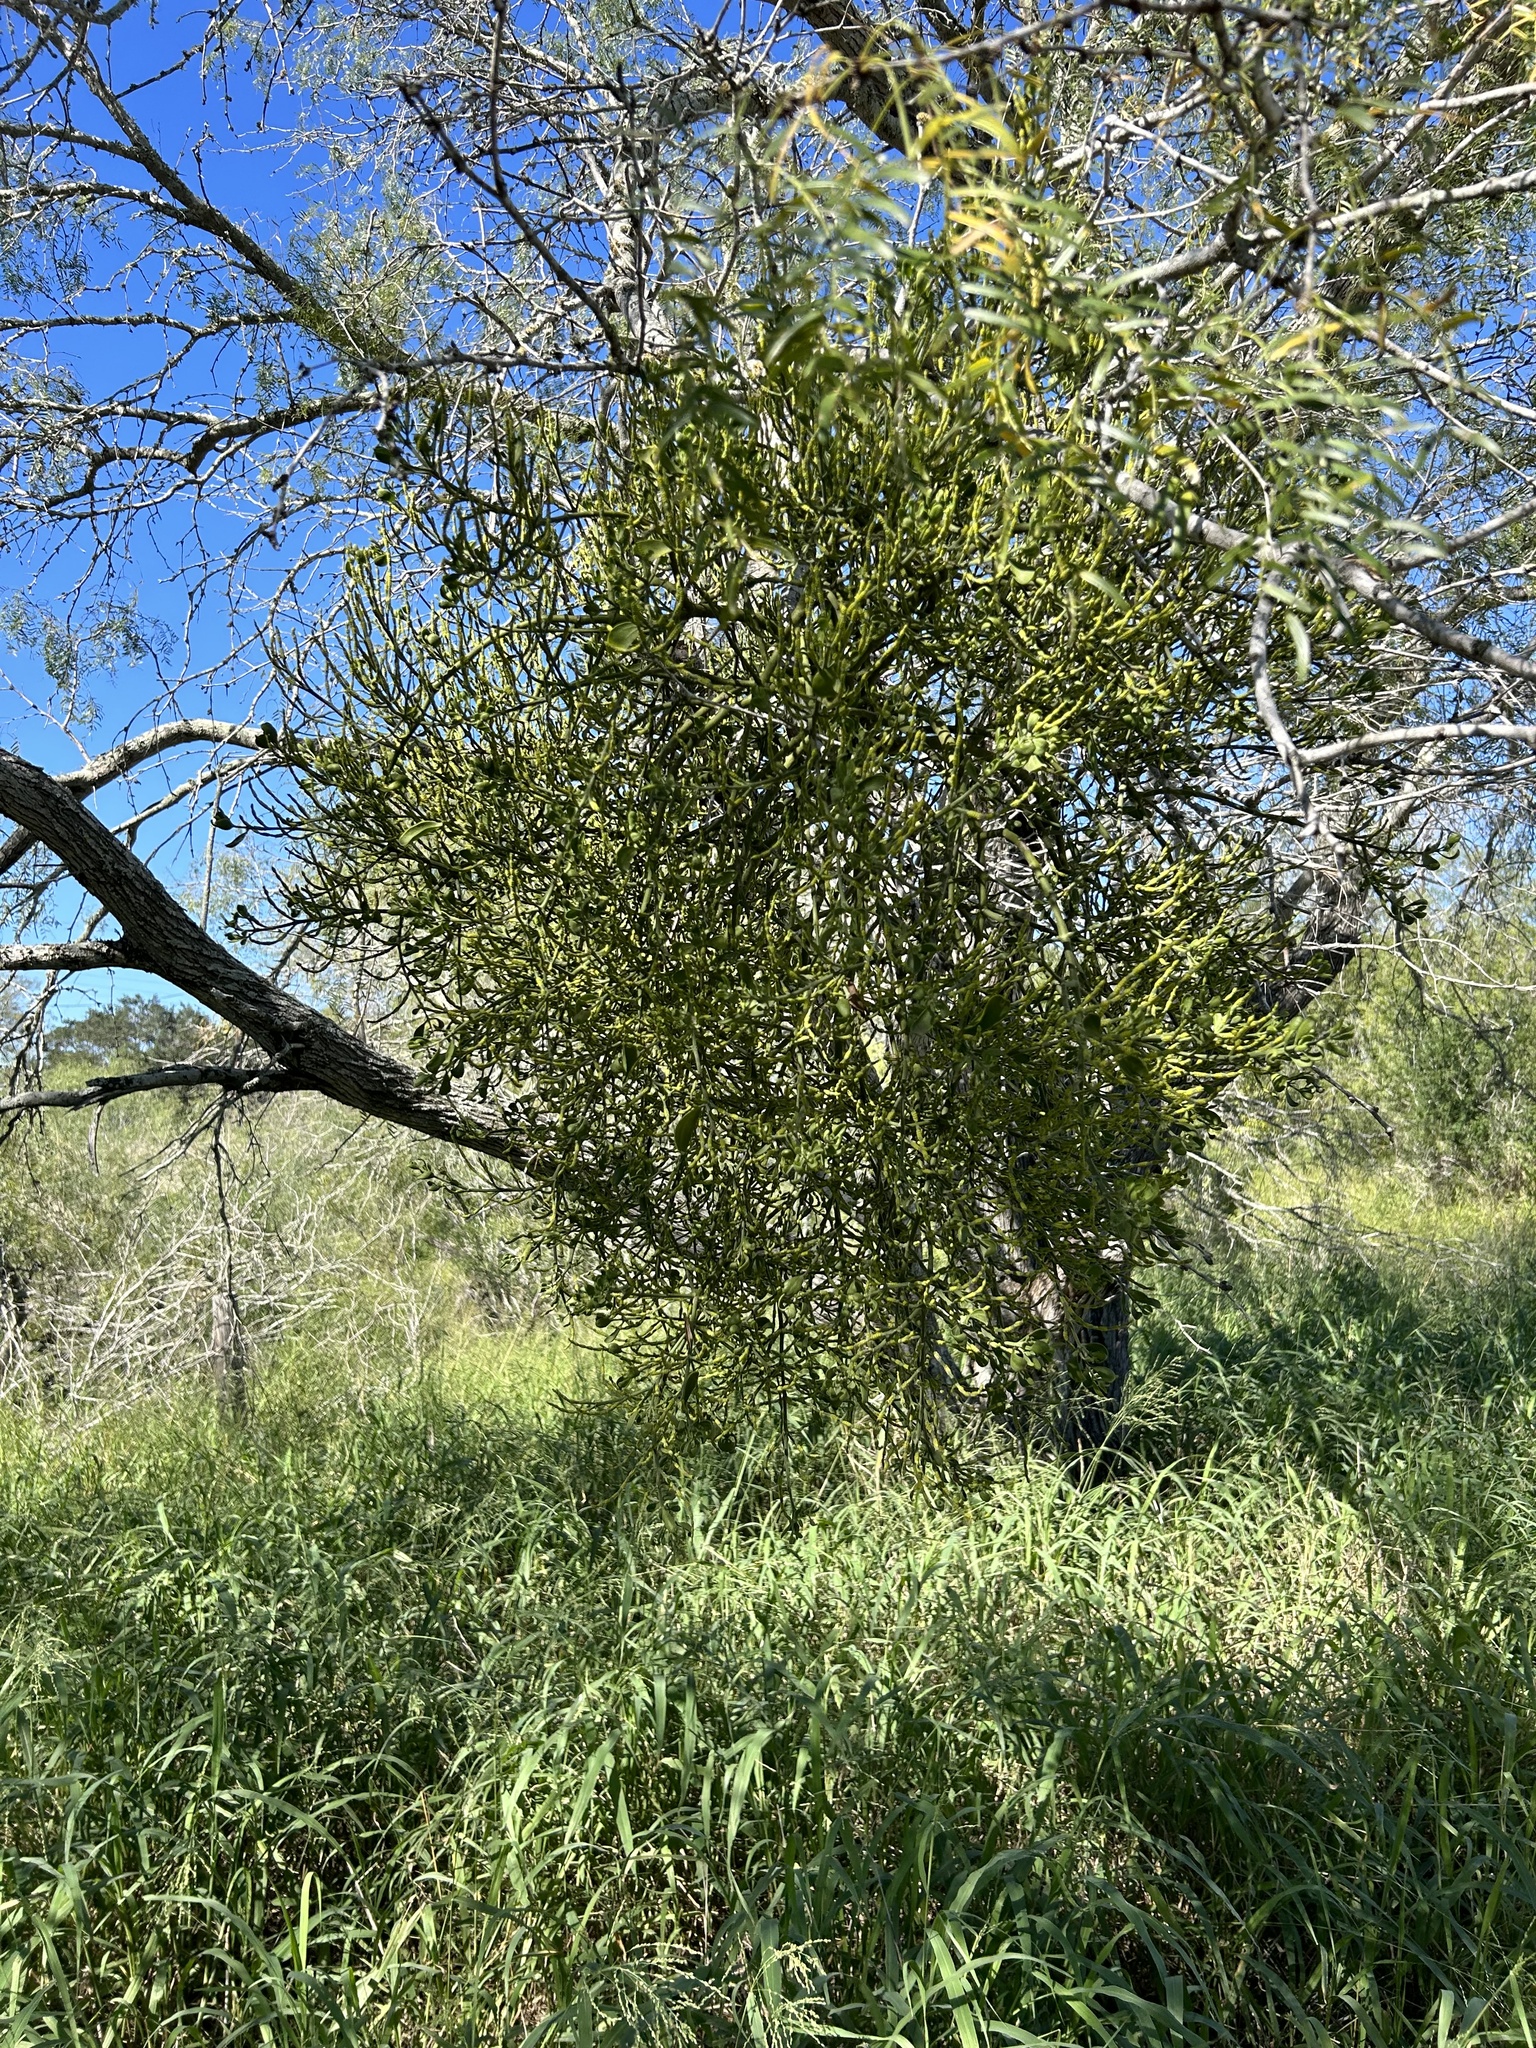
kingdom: Plantae
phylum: Tracheophyta
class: Magnoliopsida
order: Santalales
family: Viscaceae
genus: Phoradendron
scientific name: Phoradendron leucarpum
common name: Pacific mistletoe
